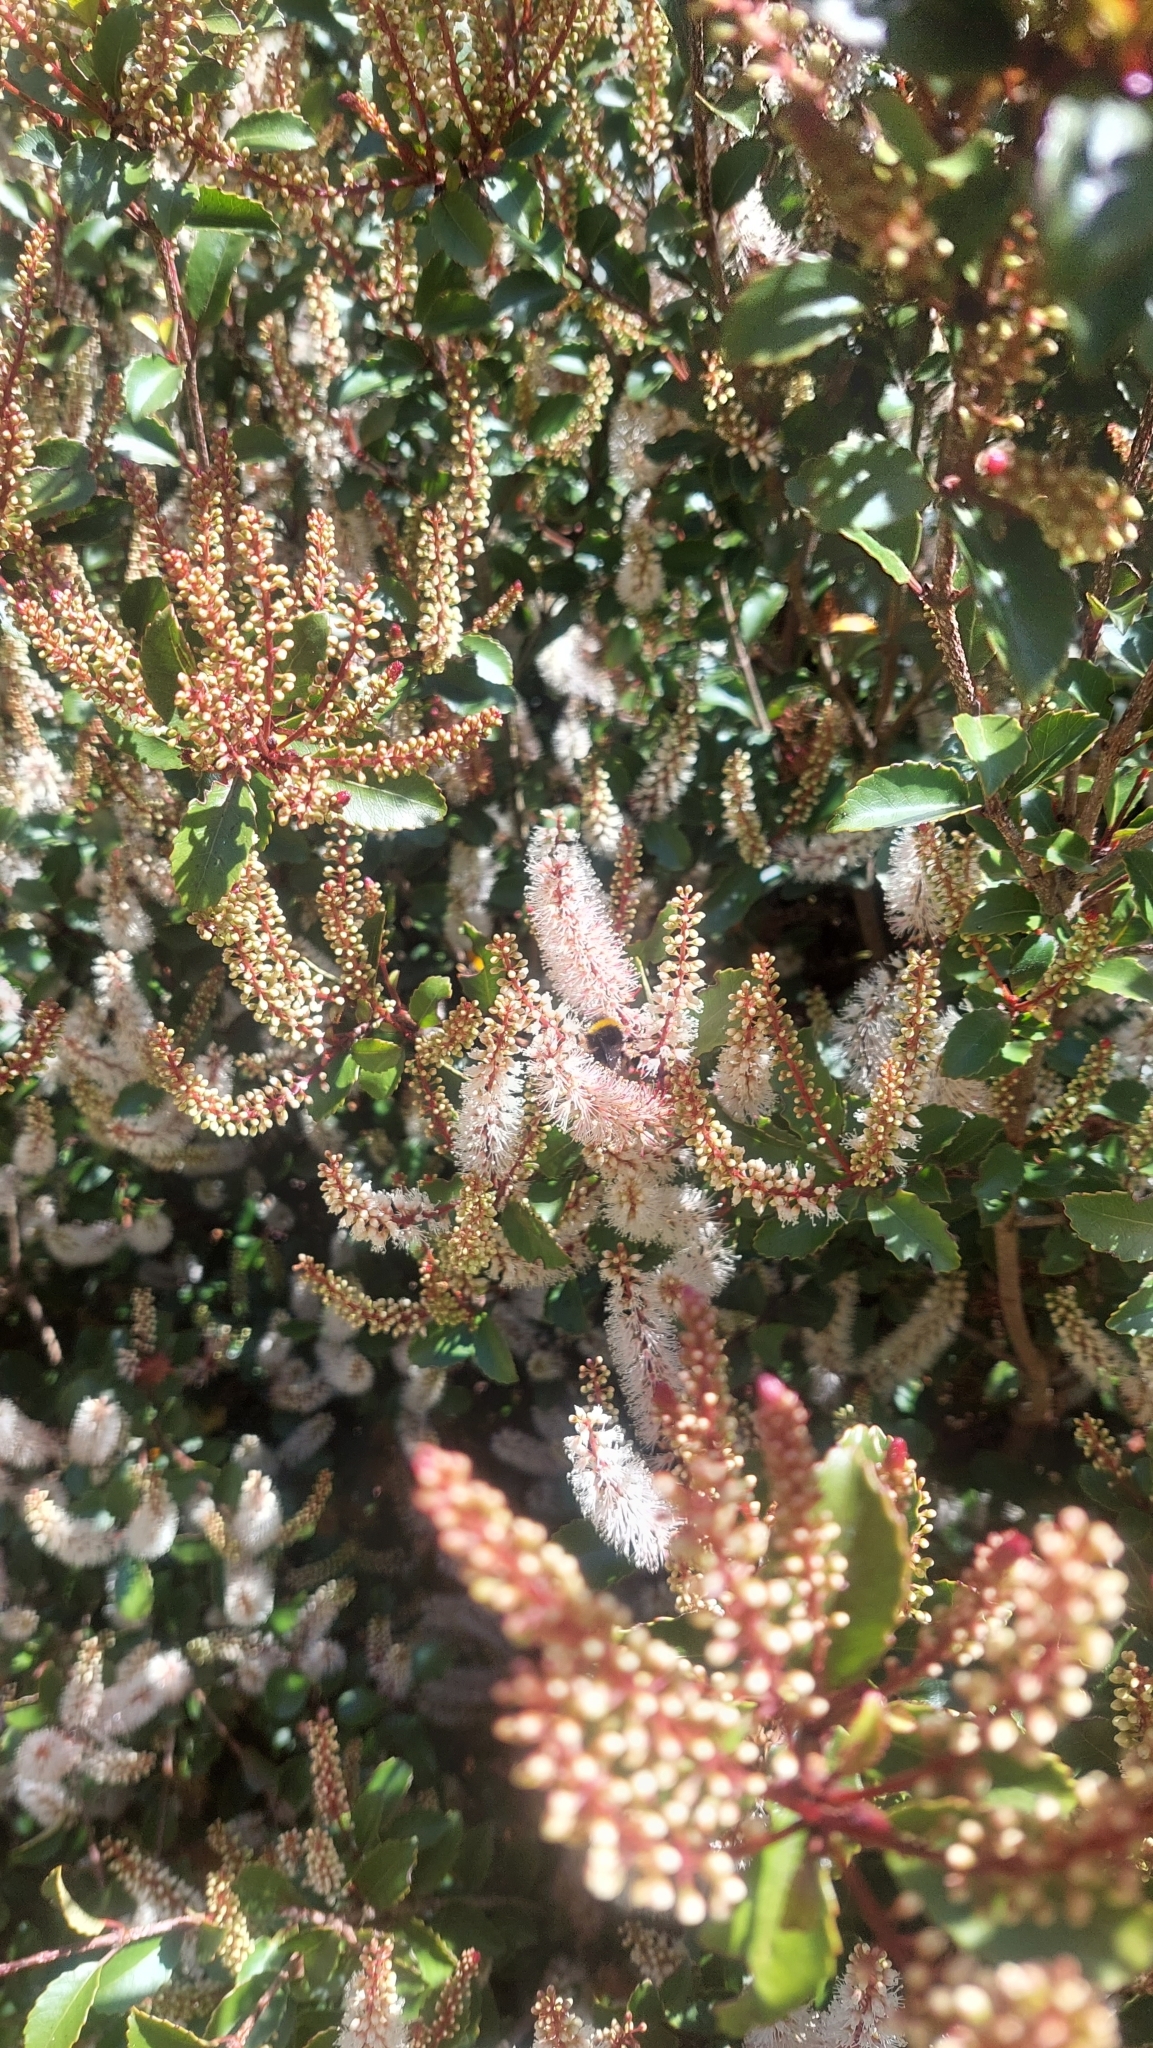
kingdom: Plantae
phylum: Tracheophyta
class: Magnoliopsida
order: Oxalidales
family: Cunoniaceae
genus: Pterophylla
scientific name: Pterophylla racemosa
